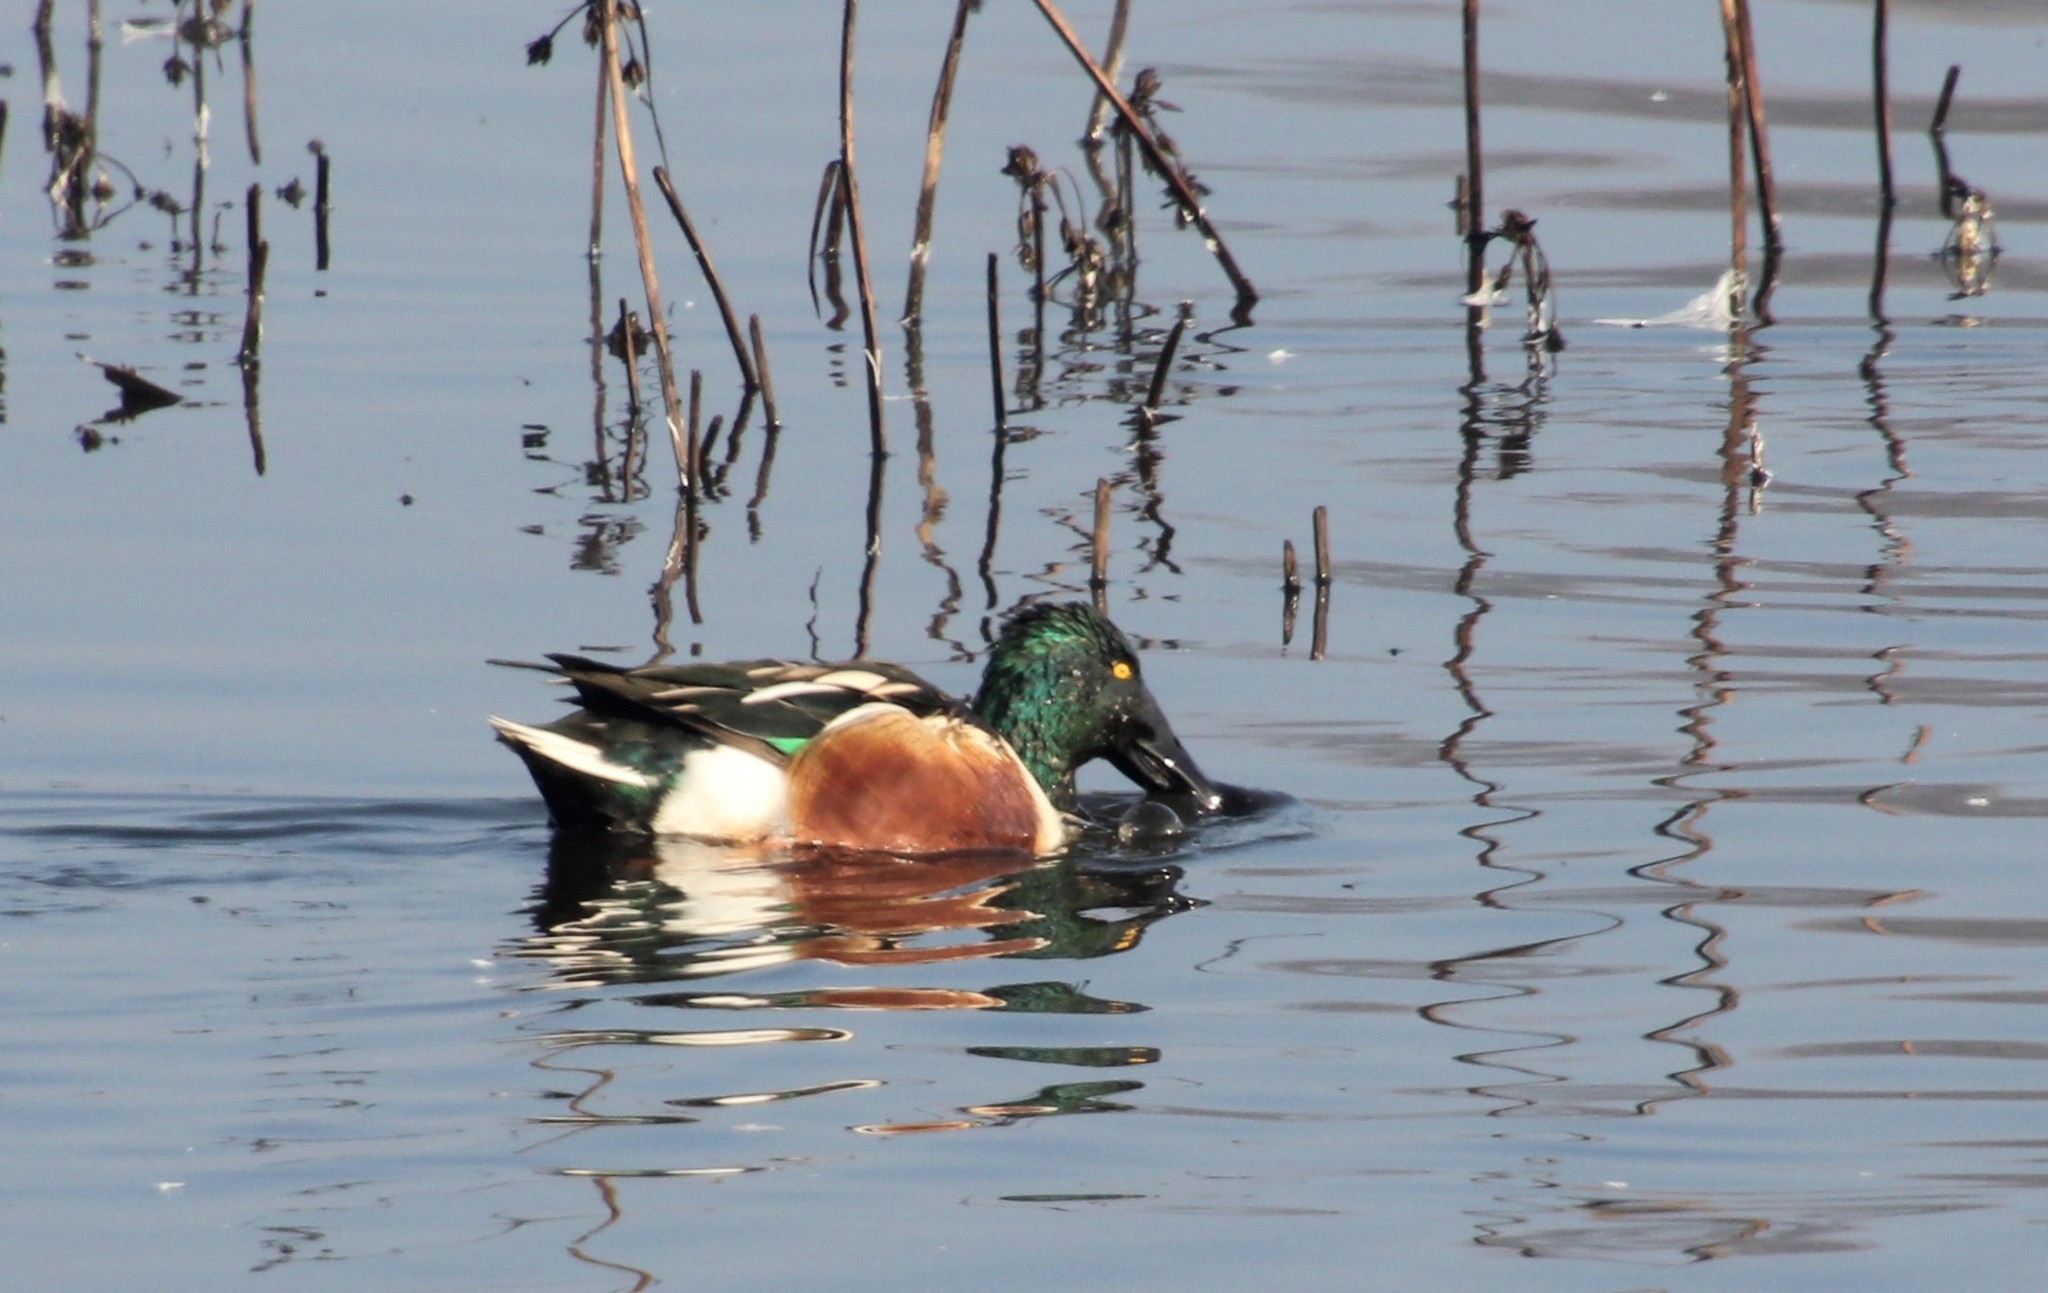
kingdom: Animalia
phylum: Chordata
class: Aves
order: Anseriformes
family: Anatidae
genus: Spatula
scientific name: Spatula clypeata
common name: Northern shoveler
